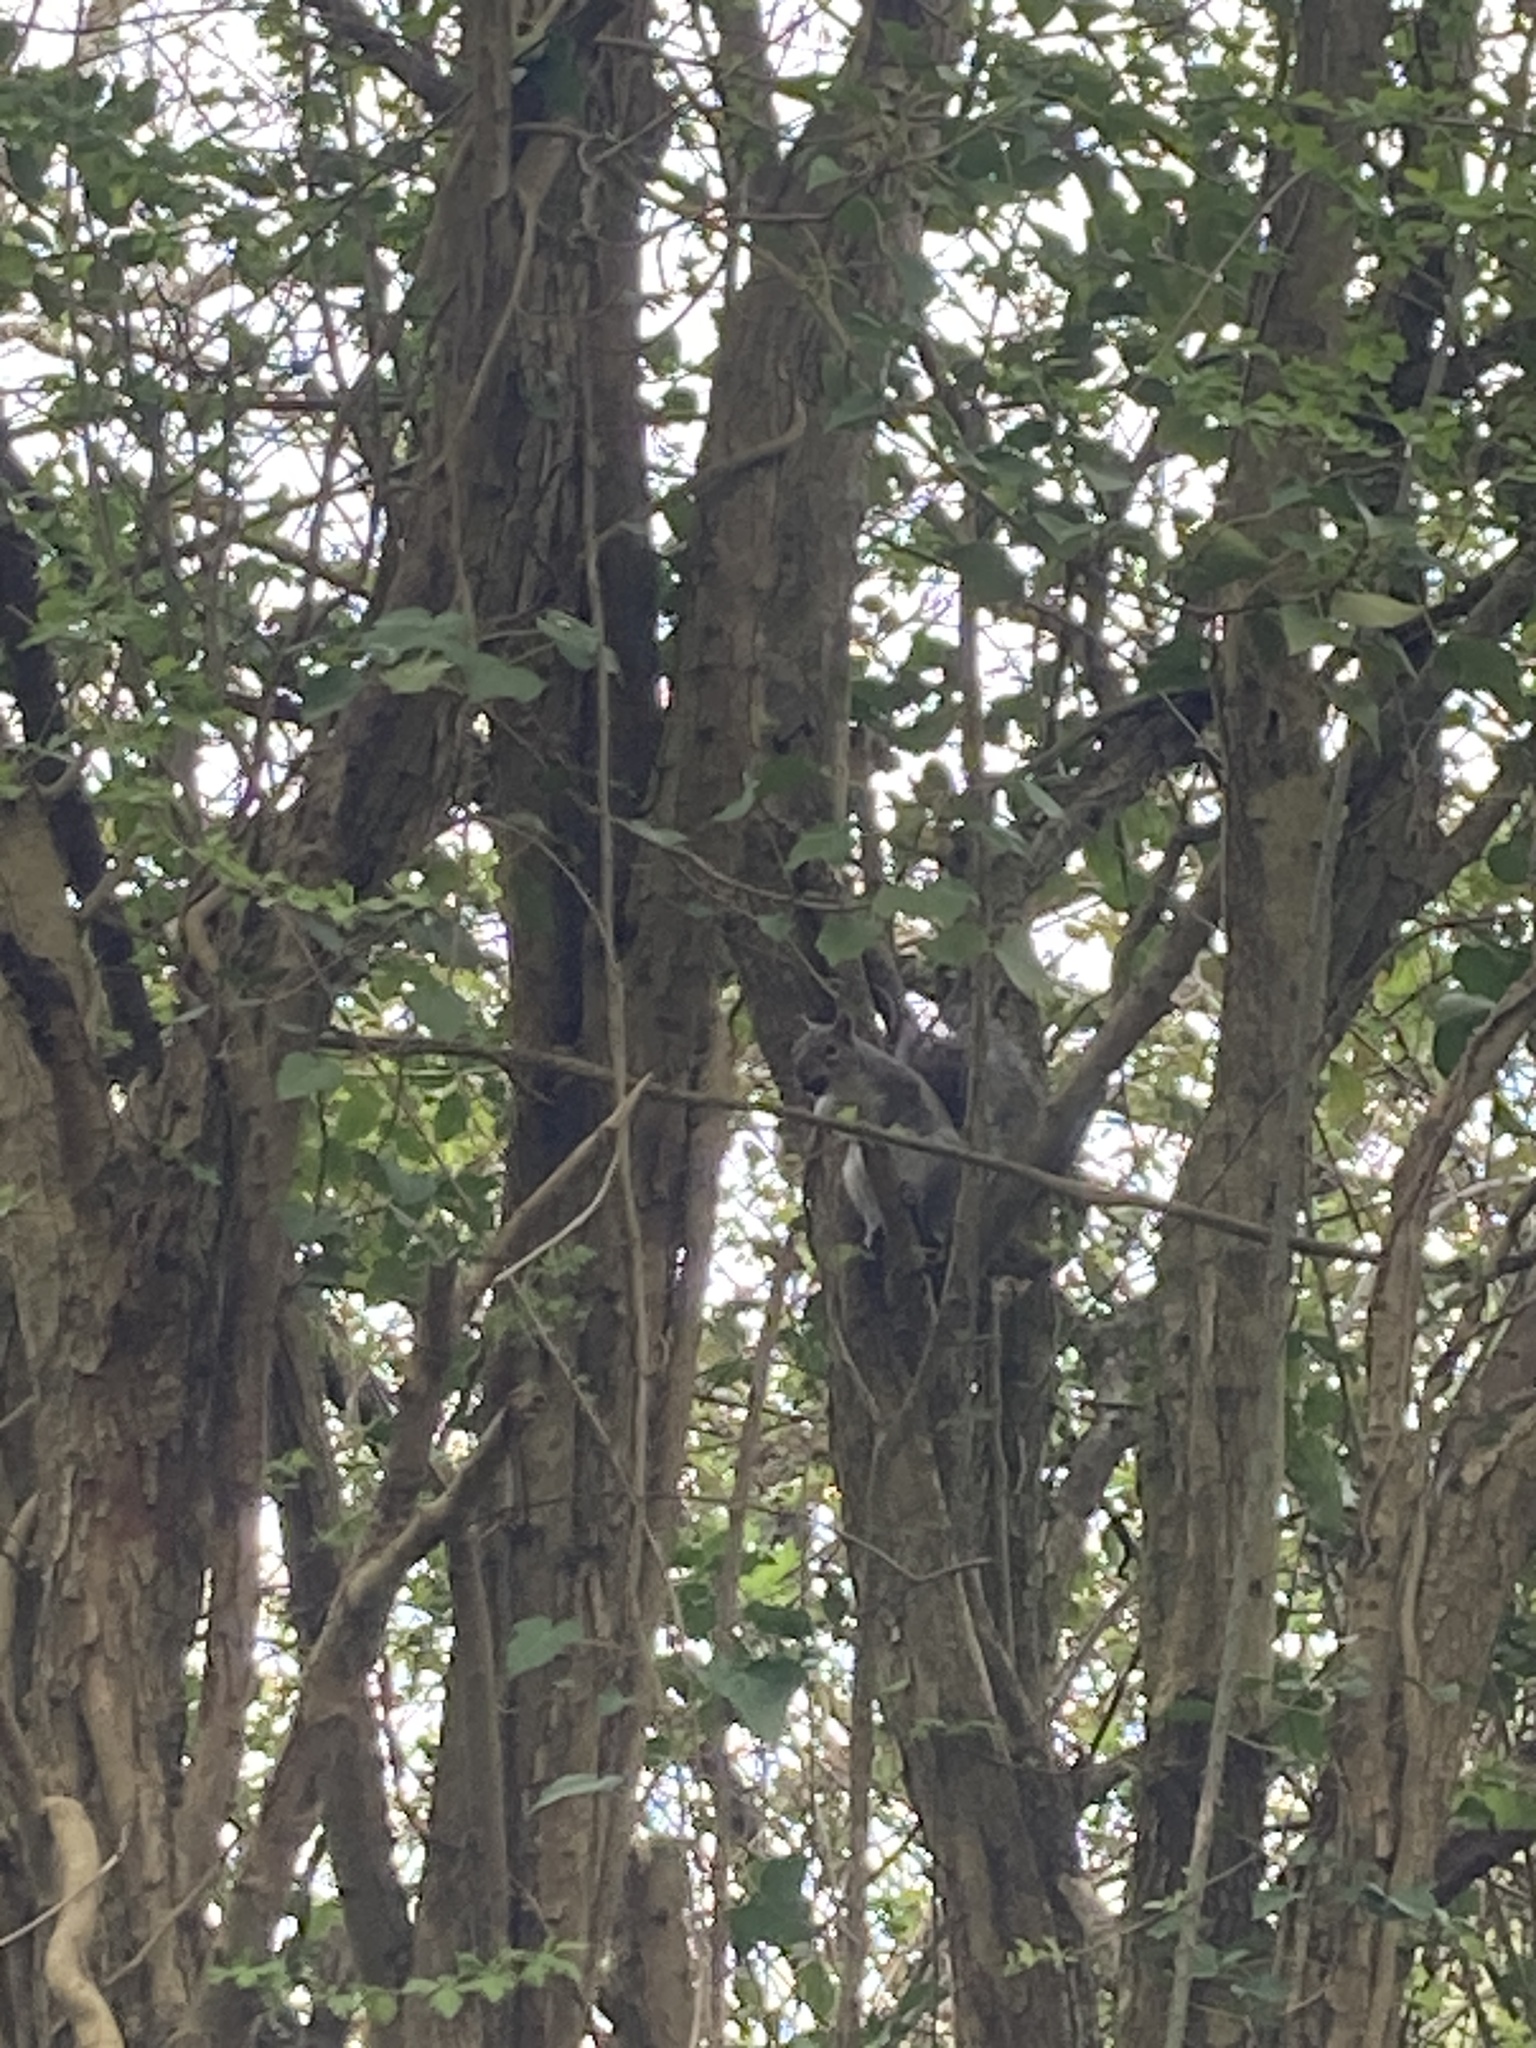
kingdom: Animalia
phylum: Chordata
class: Mammalia
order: Rodentia
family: Sciuridae
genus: Sciurus
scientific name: Sciurus carolinensis
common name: Eastern gray squirrel
